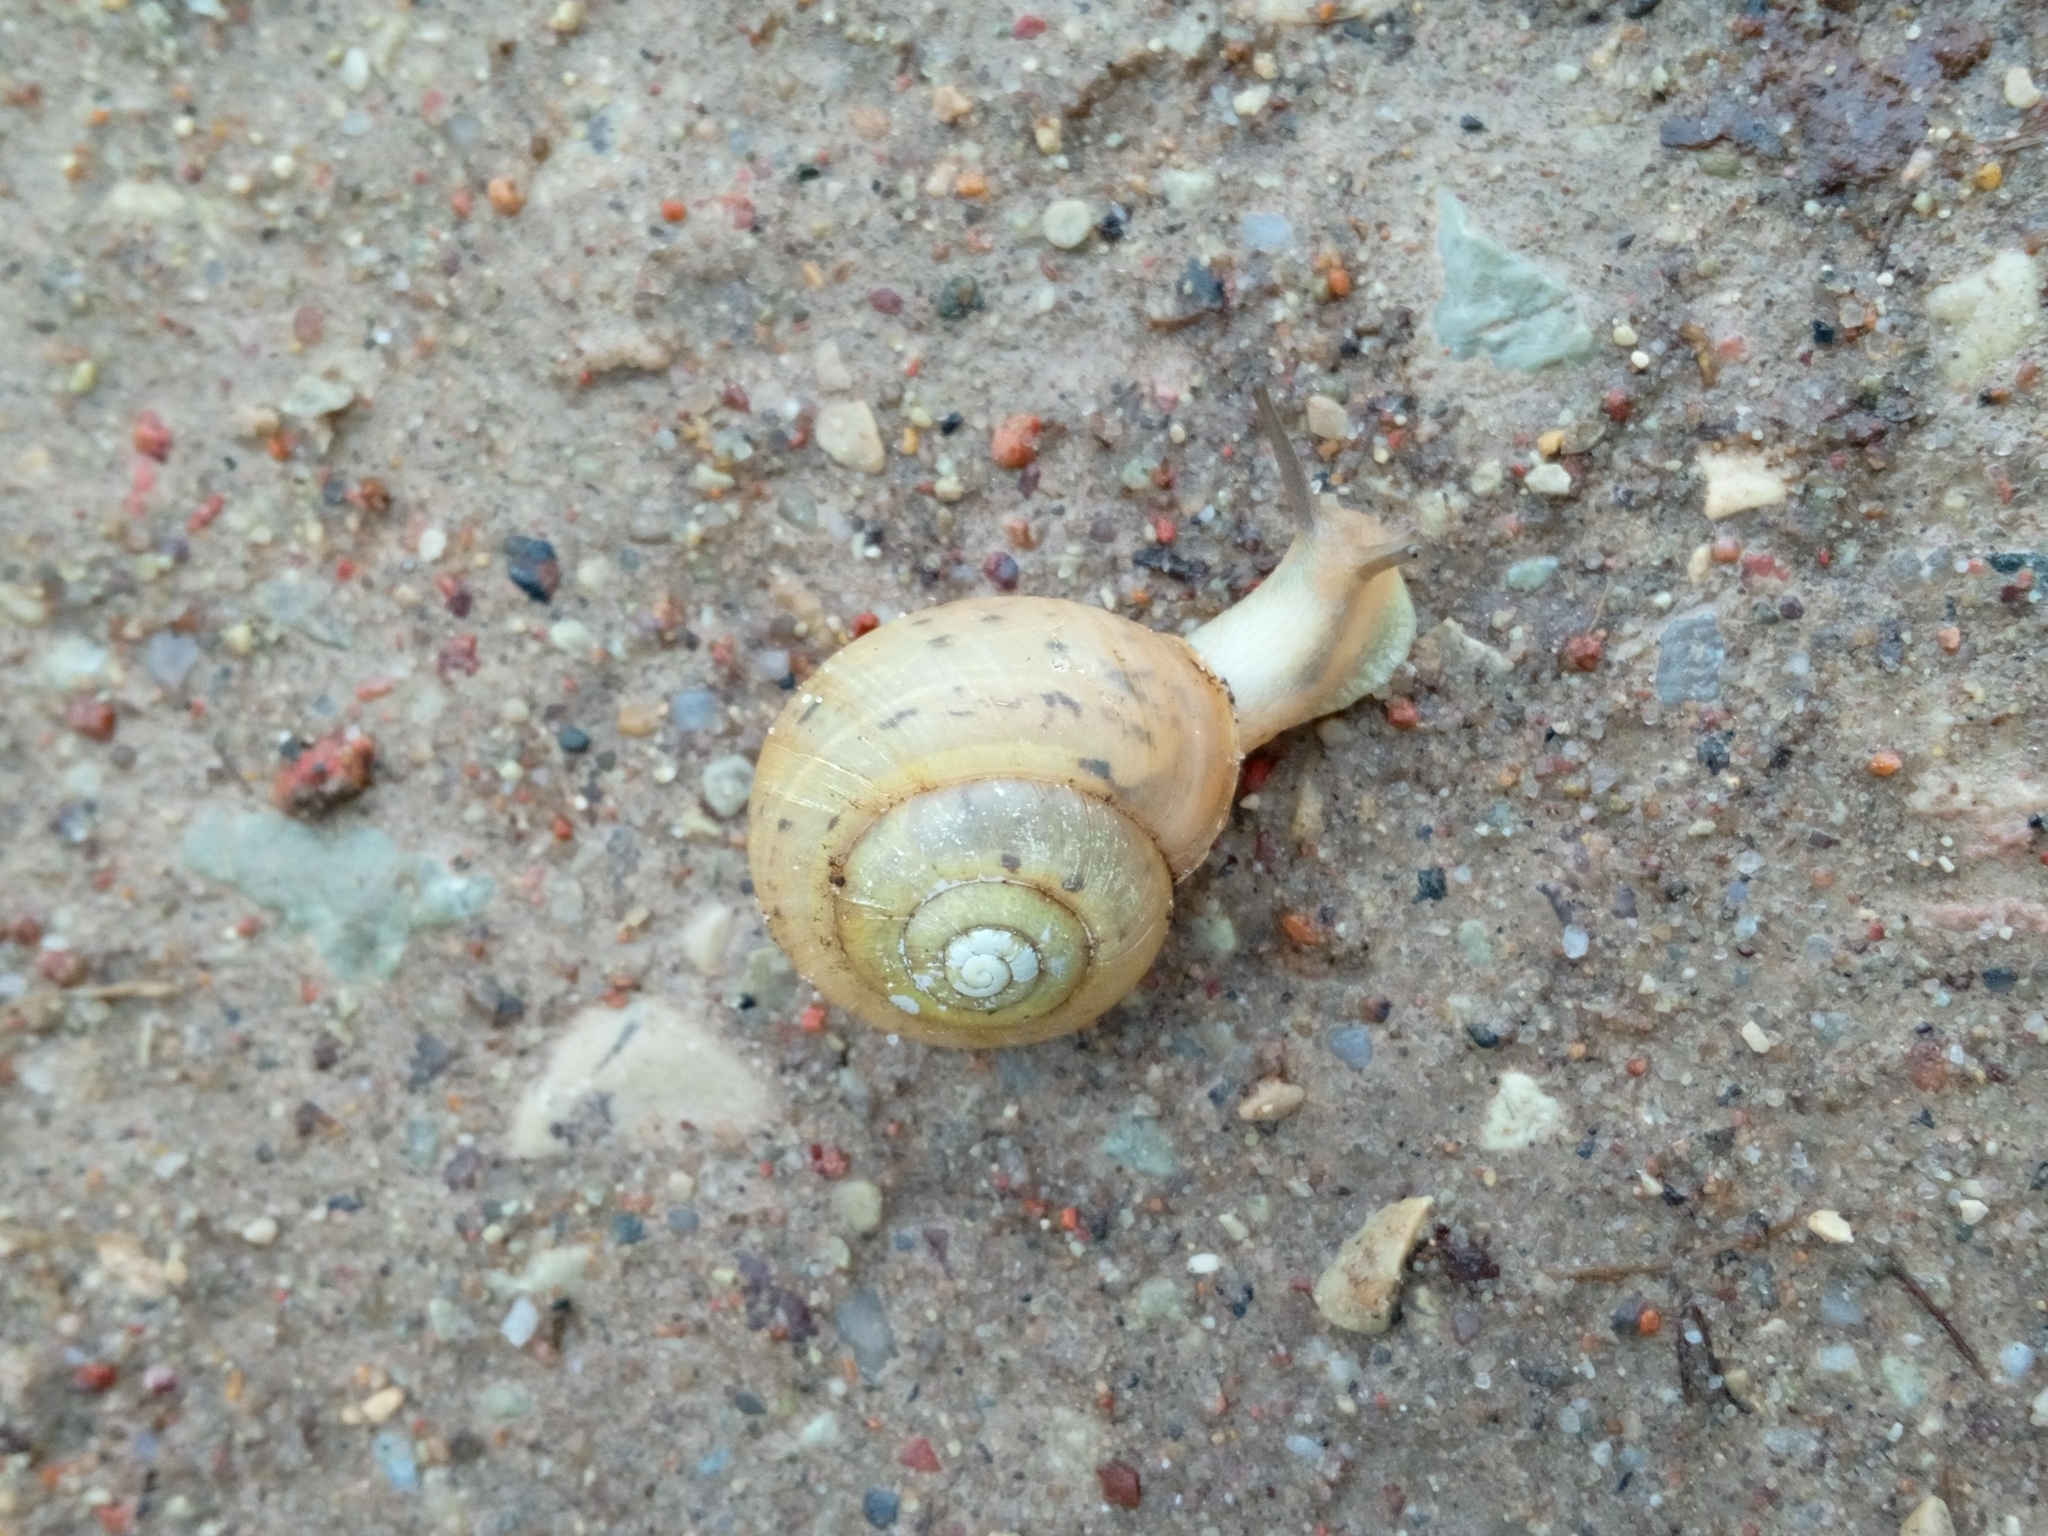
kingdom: Animalia
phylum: Mollusca
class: Gastropoda
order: Stylommatophora
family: Camaenidae
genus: Fruticicola
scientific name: Fruticicola fruticum
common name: Bush snail
